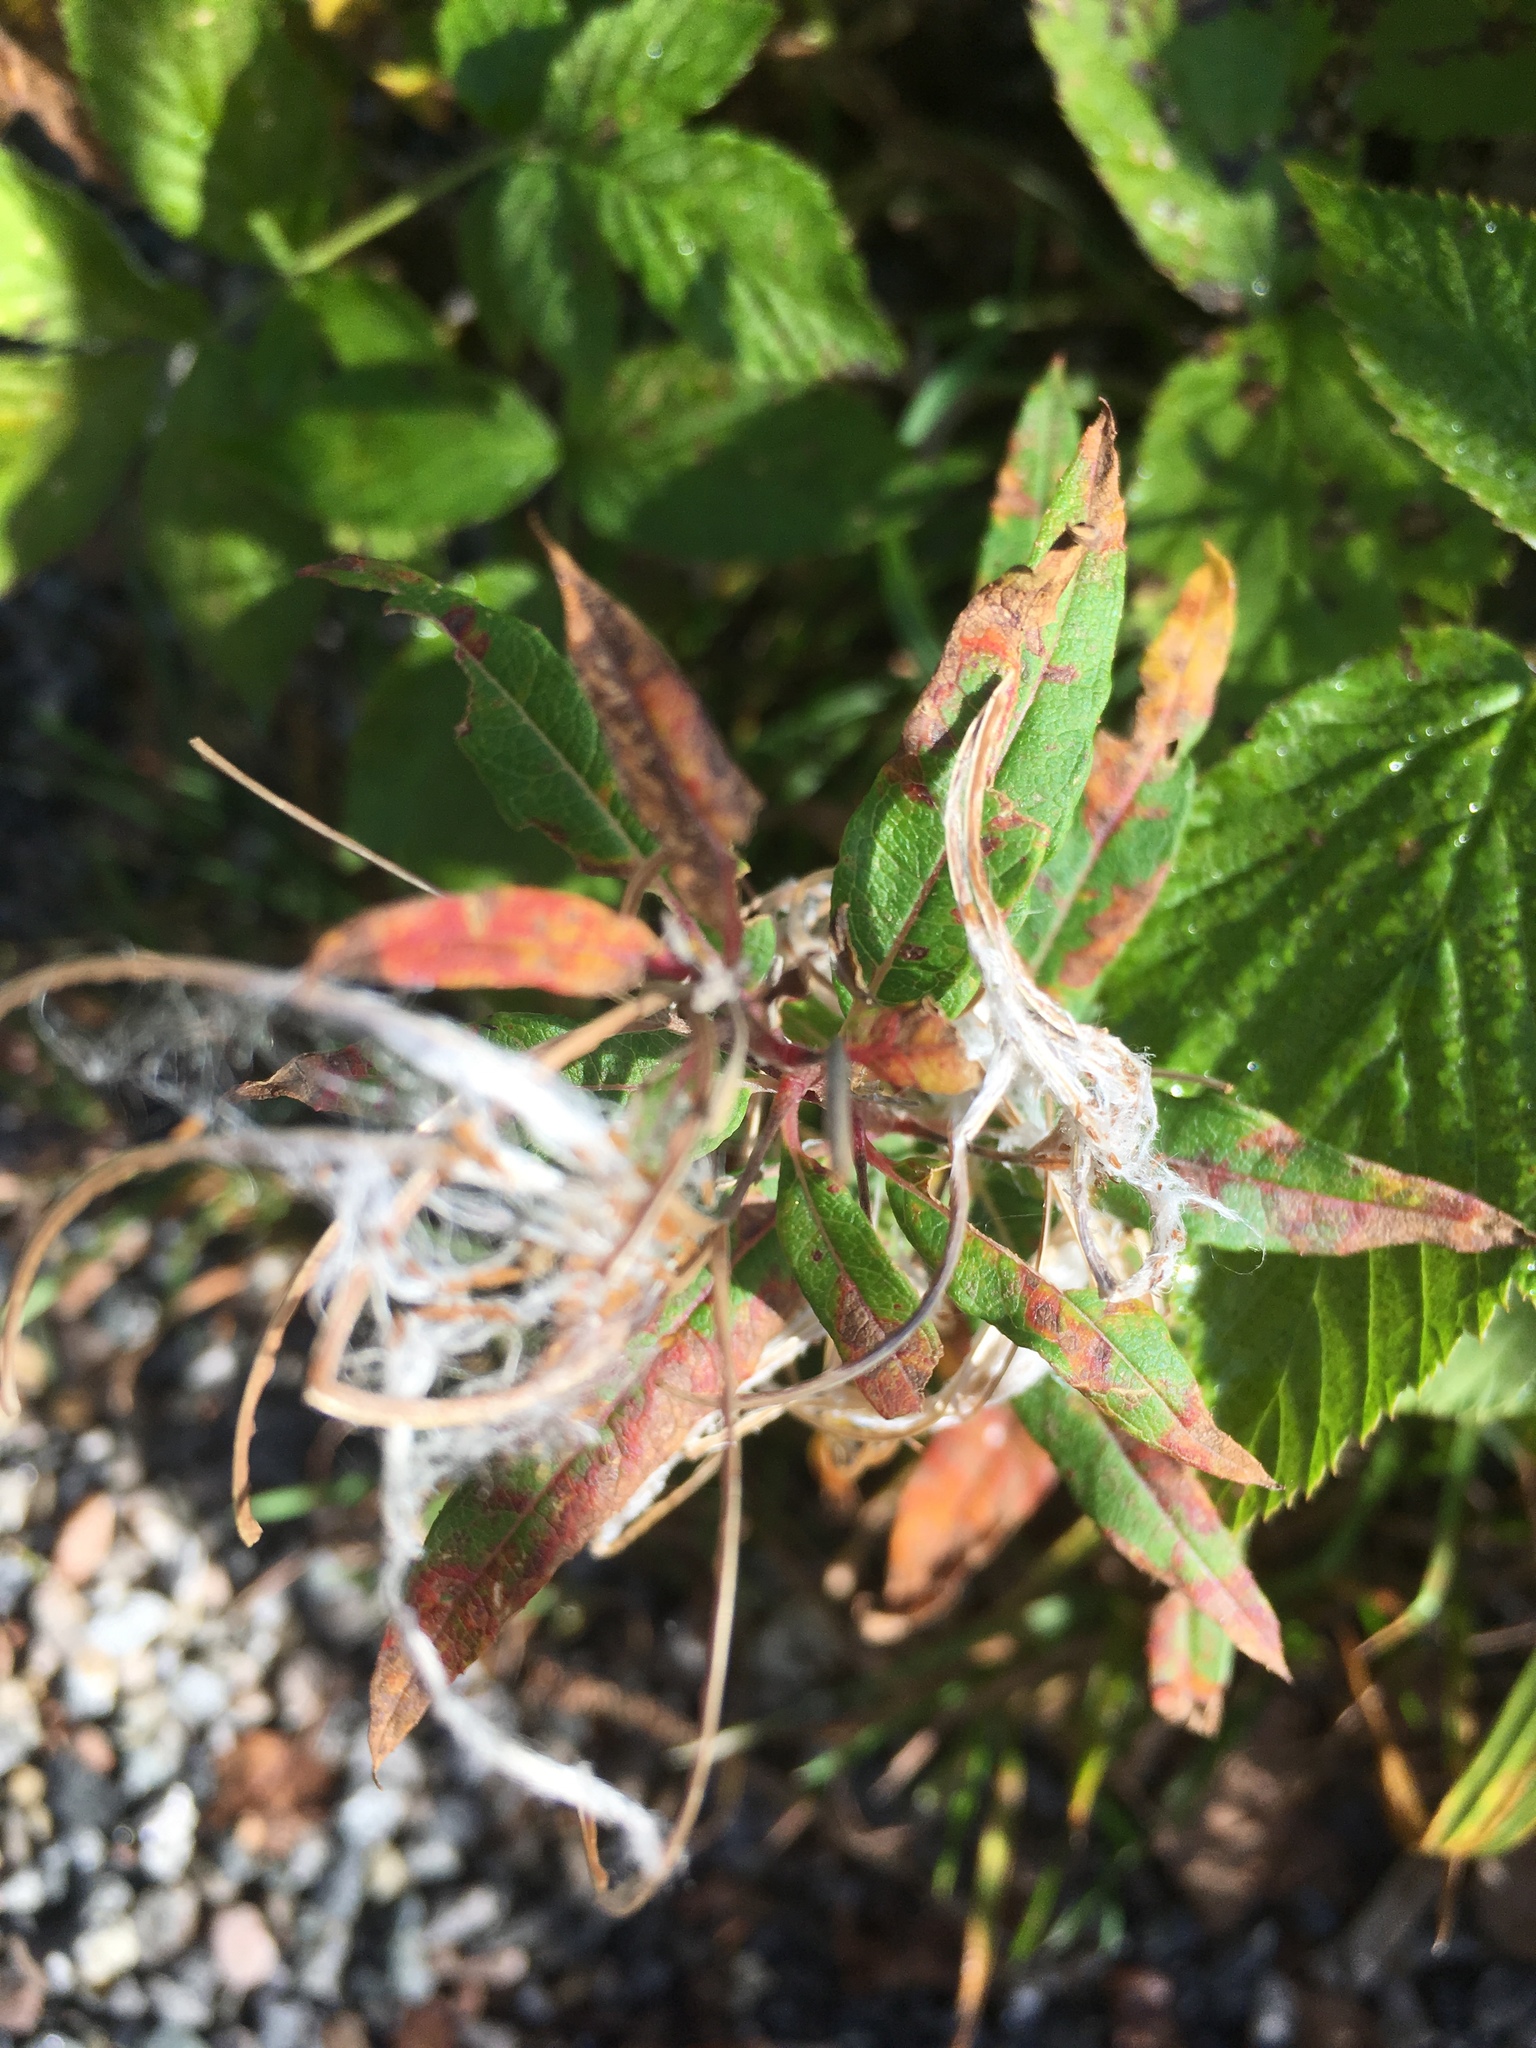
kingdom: Plantae
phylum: Tracheophyta
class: Magnoliopsida
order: Myrtales
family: Onagraceae
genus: Chamaenerion
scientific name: Chamaenerion angustifolium
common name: Fireweed
